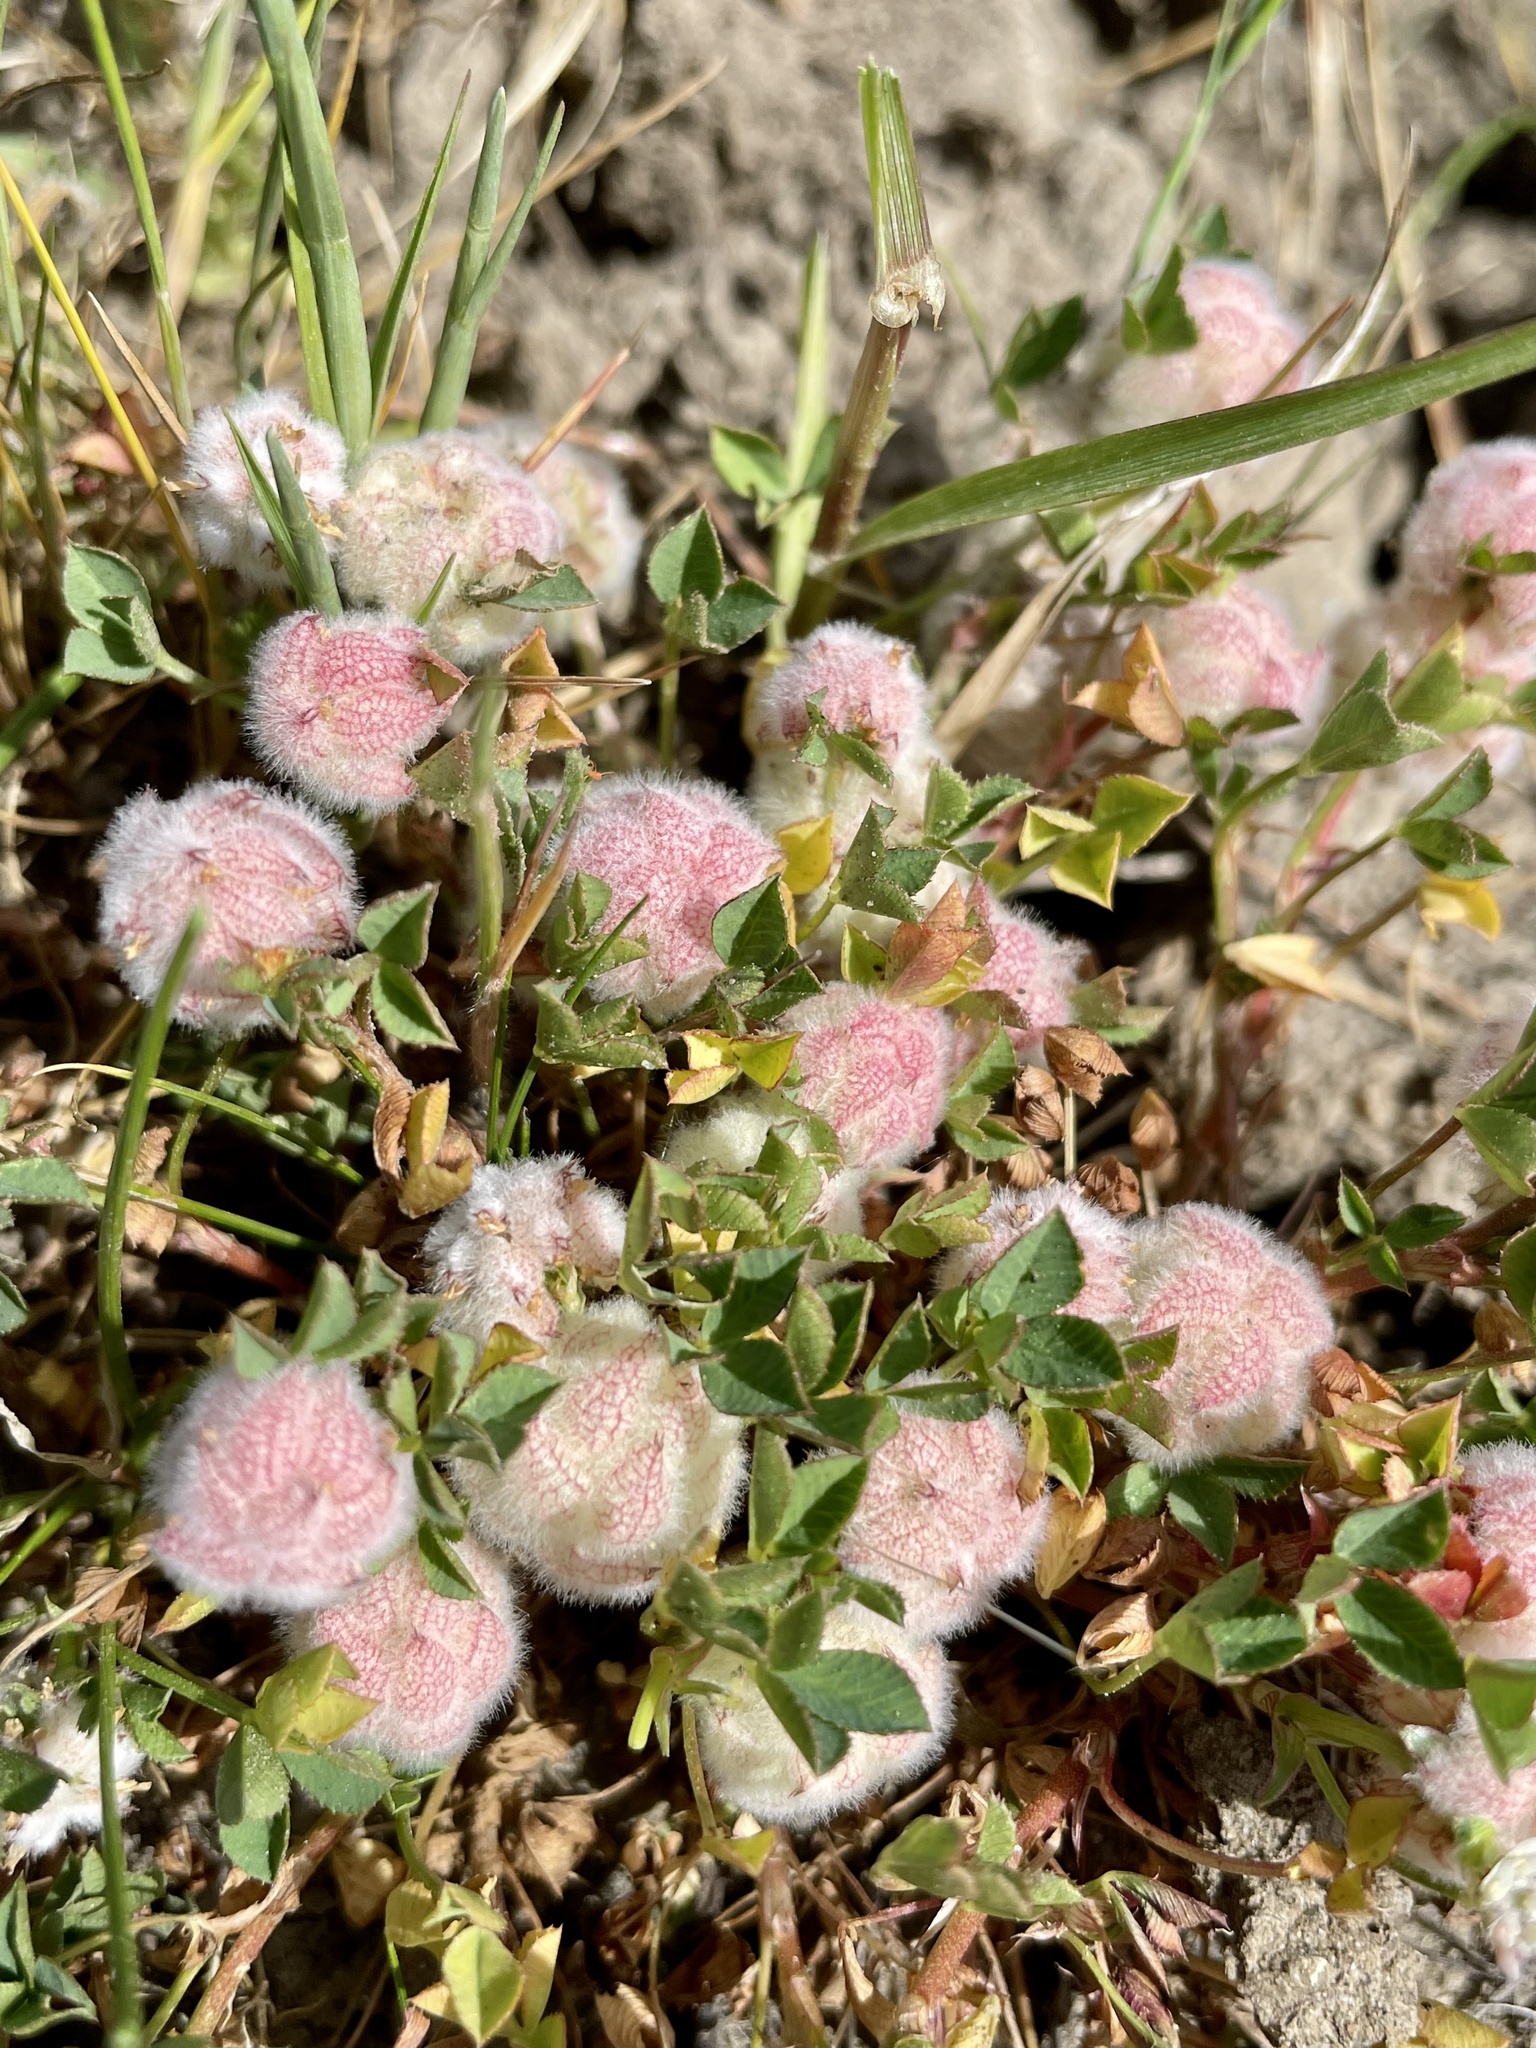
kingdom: Plantae
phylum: Tracheophyta
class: Magnoliopsida
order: Fabales
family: Fabaceae
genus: Trifolium
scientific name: Trifolium tomentosum
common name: Woolly clover
